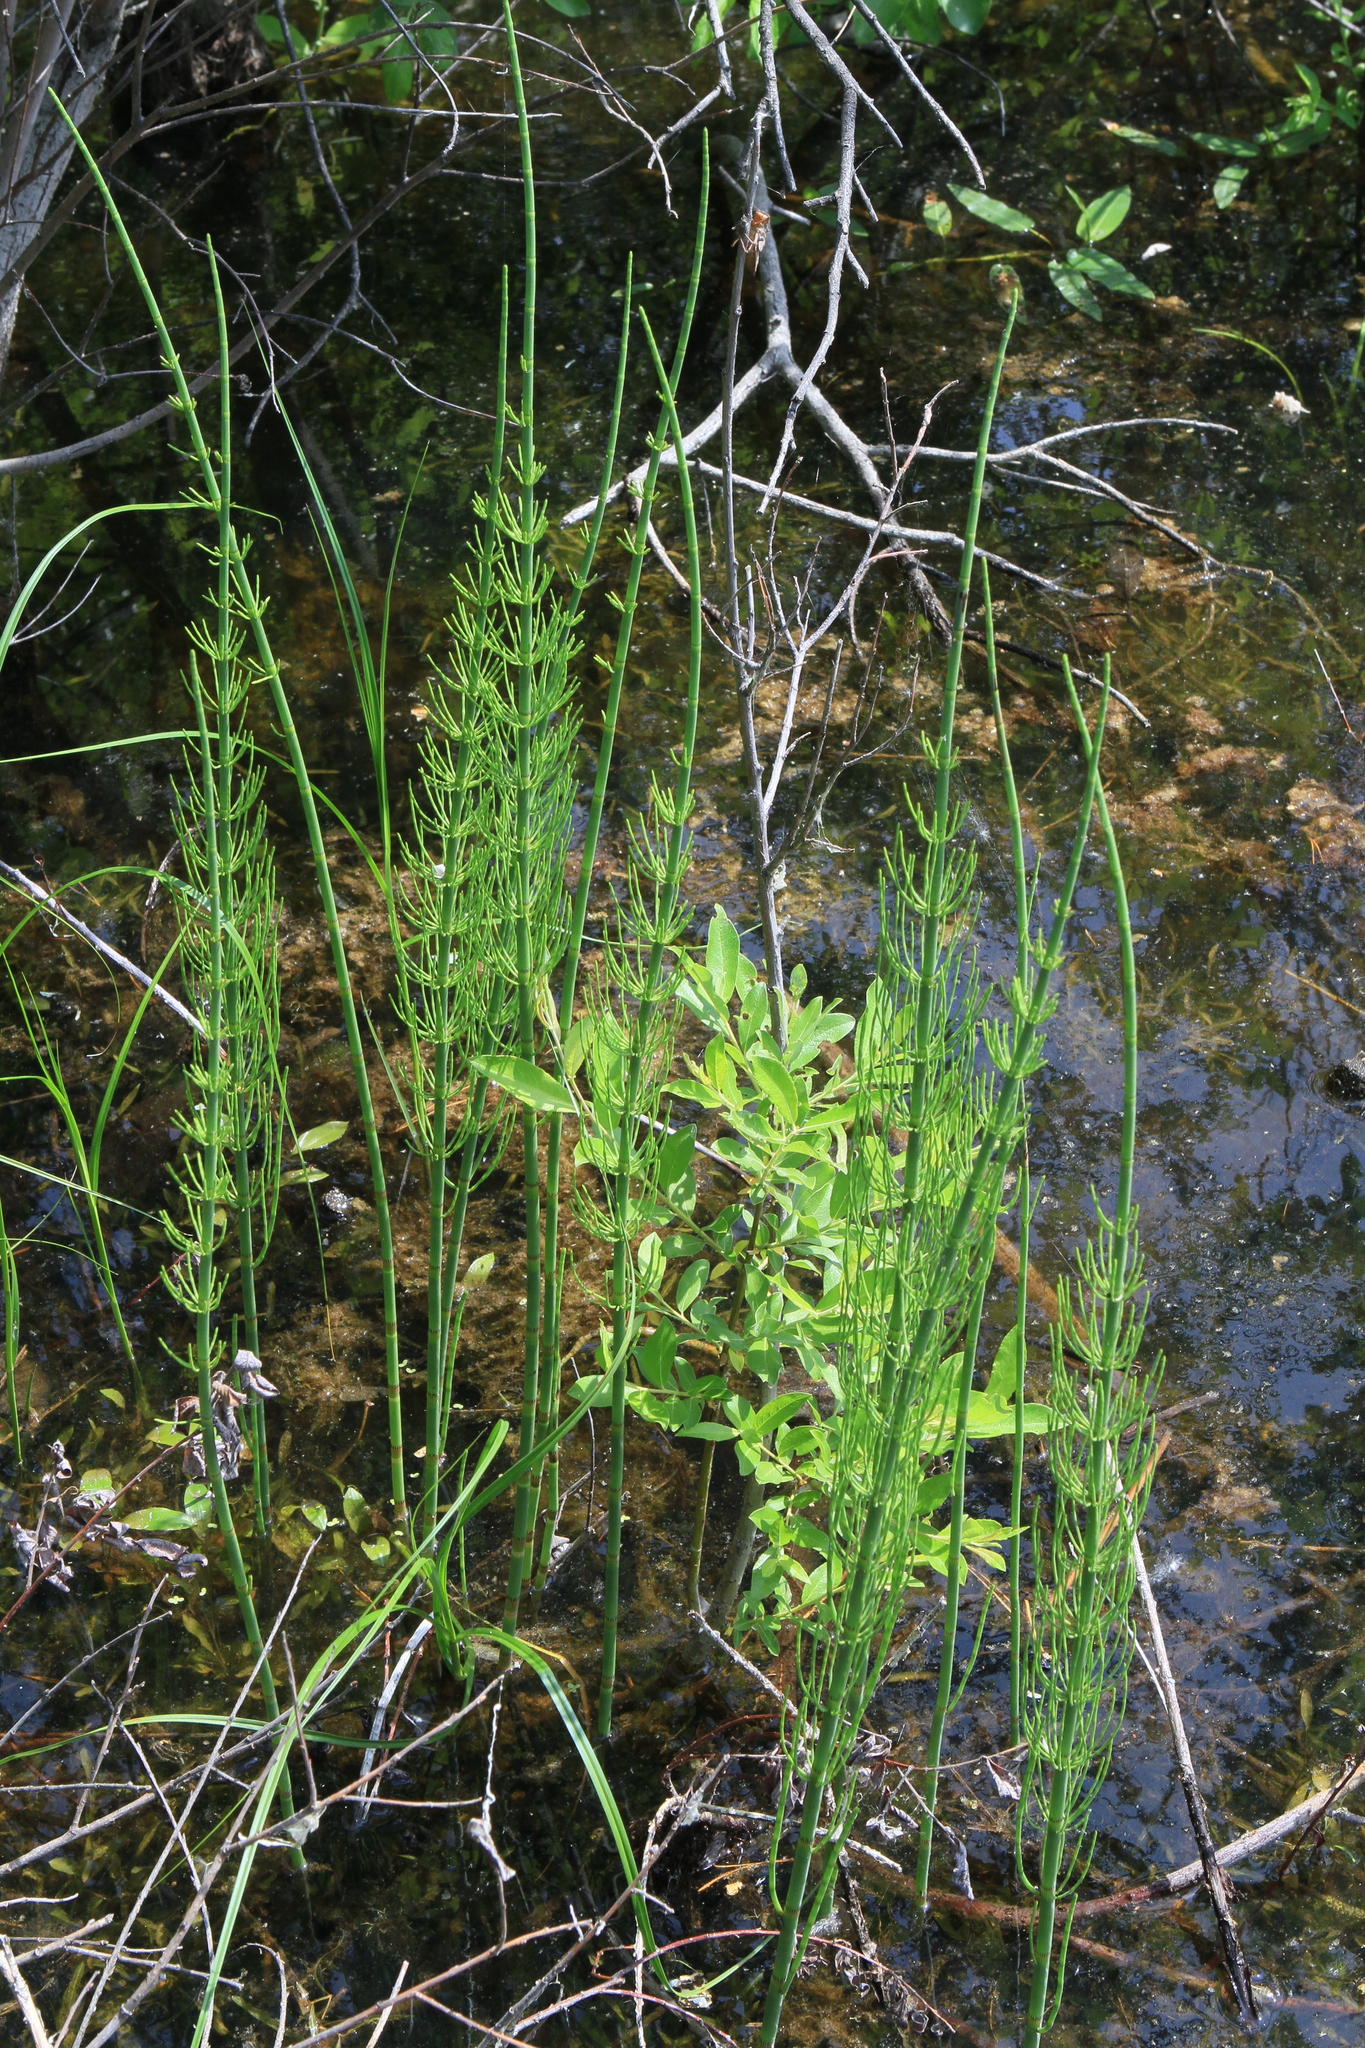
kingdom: Plantae
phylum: Tracheophyta
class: Polypodiopsida
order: Equisetales
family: Equisetaceae
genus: Equisetum
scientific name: Equisetum fluviatile
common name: Water horsetail
